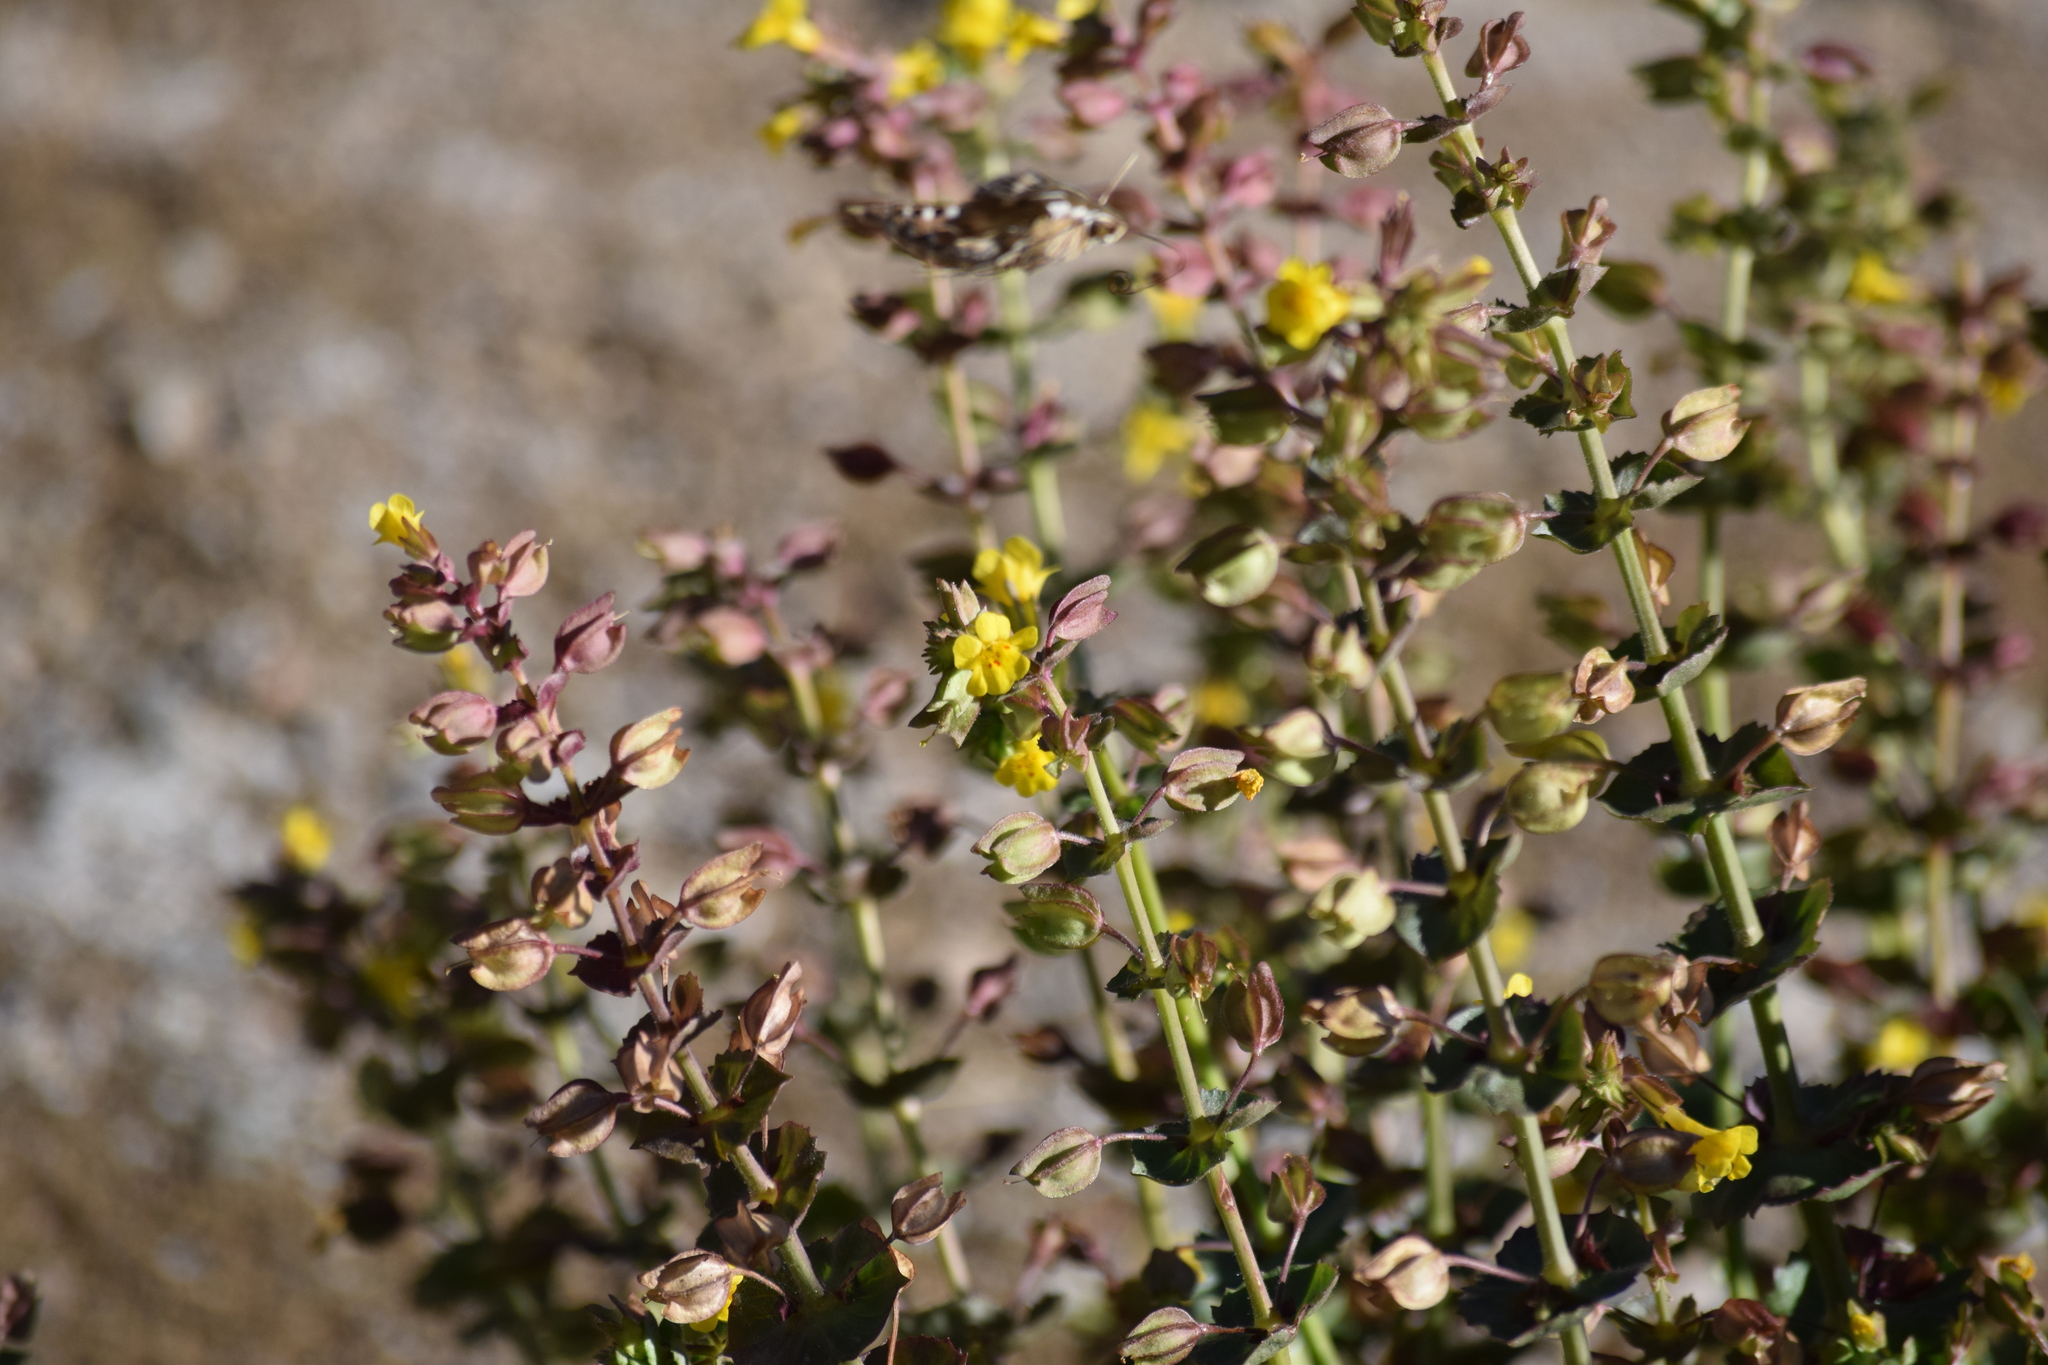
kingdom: Plantae
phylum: Tracheophyta
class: Magnoliopsida
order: Lamiales
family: Phrymaceae
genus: Erythranthe
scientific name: Erythranthe guttata
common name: Monkeyflower
